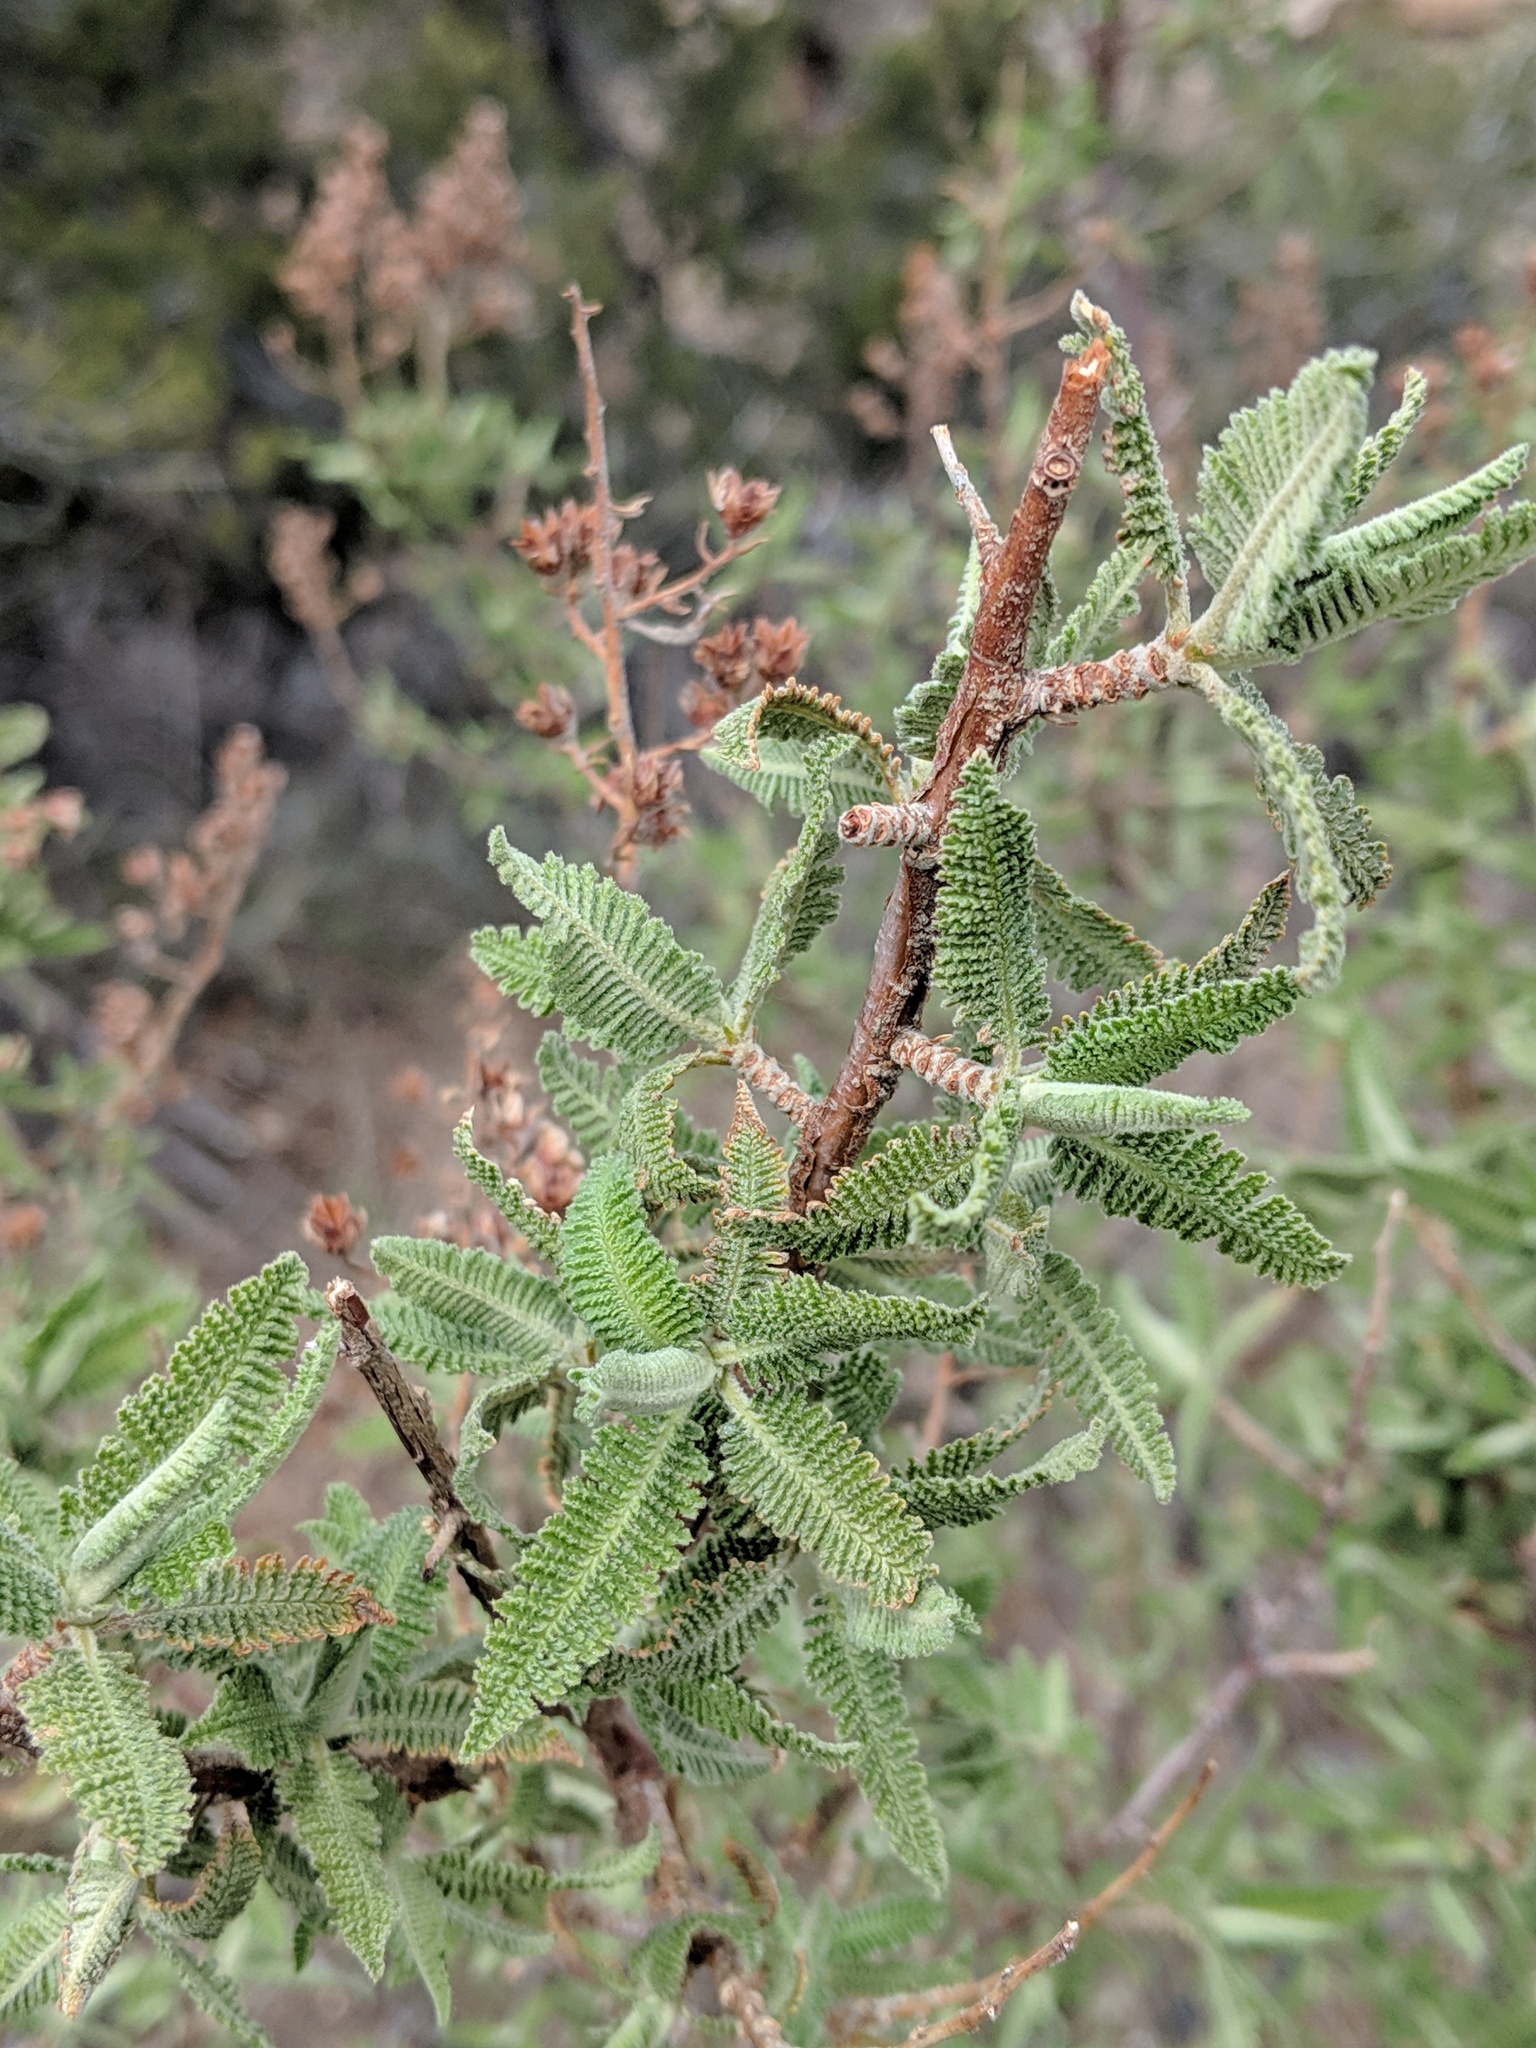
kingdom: Plantae
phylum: Tracheophyta
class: Magnoliopsida
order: Rosales
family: Rosaceae
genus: Chamaebatiaria
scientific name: Chamaebatiaria millefolium
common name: Fernbush
